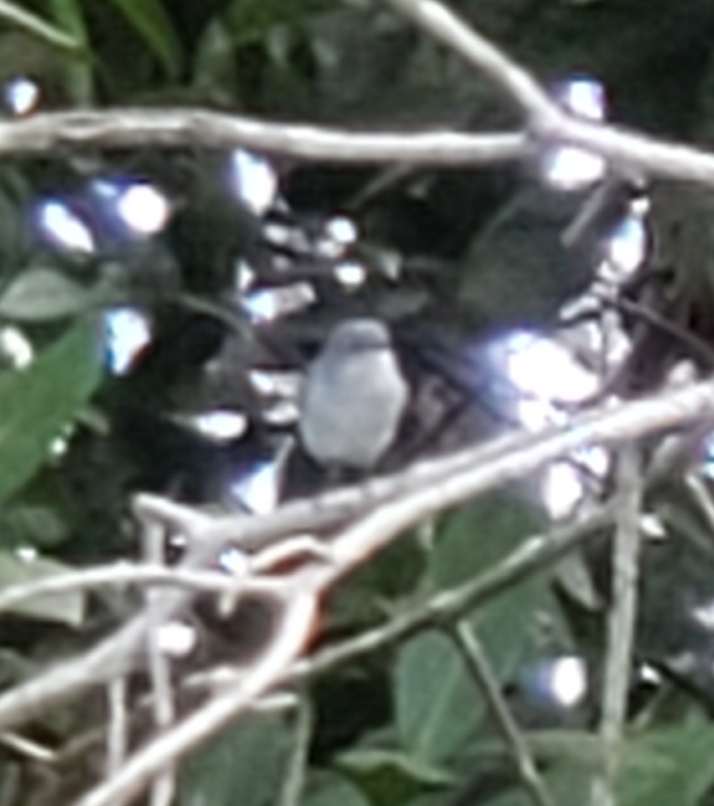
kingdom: Animalia
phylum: Chordata
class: Aves
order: Passeriformes
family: Polioptilidae
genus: Polioptila
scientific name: Polioptila caerulea
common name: Blue-gray gnatcatcher
